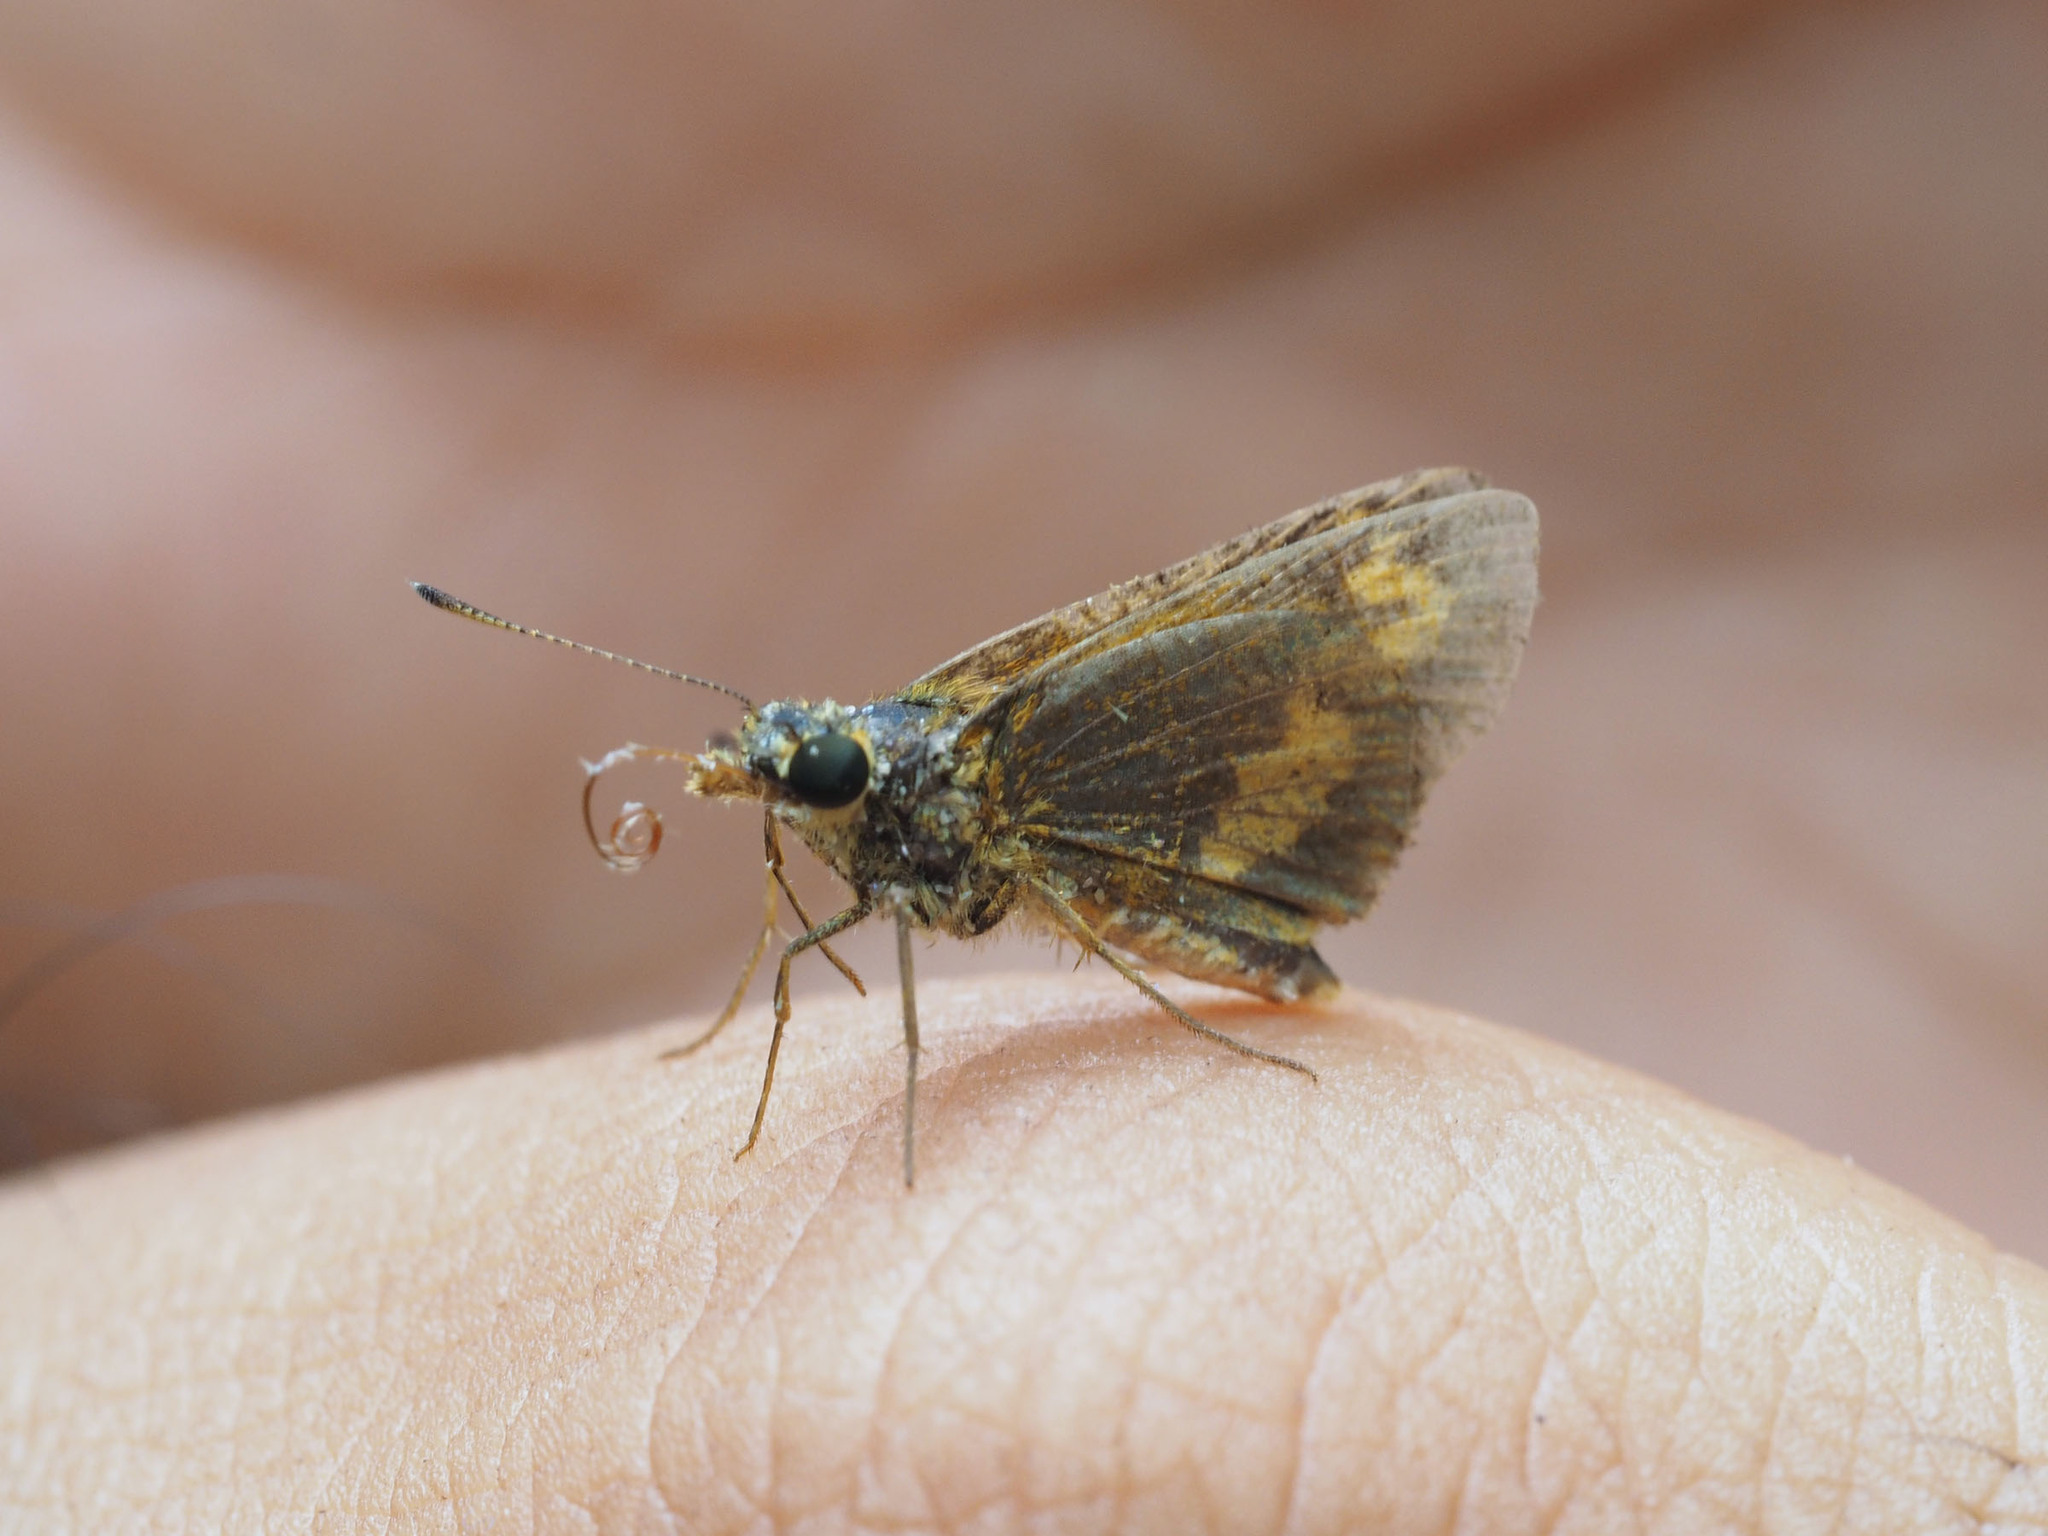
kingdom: Animalia
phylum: Arthropoda
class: Insecta
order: Lepidoptera
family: Hesperiidae
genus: Oriens
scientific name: Oriens gola
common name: Common dartlet
